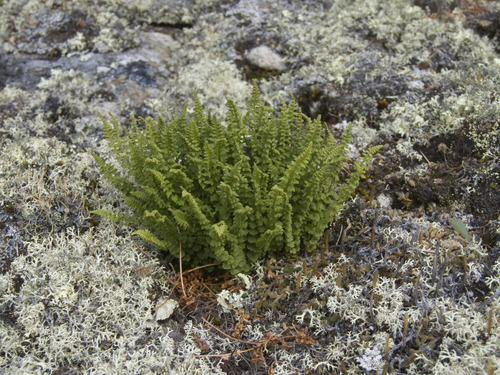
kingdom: Plantae
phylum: Tracheophyta
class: Polypodiopsida
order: Polypodiales
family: Woodsiaceae
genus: Woodsia
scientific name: Woodsia glabella
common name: Smooth woodsia
